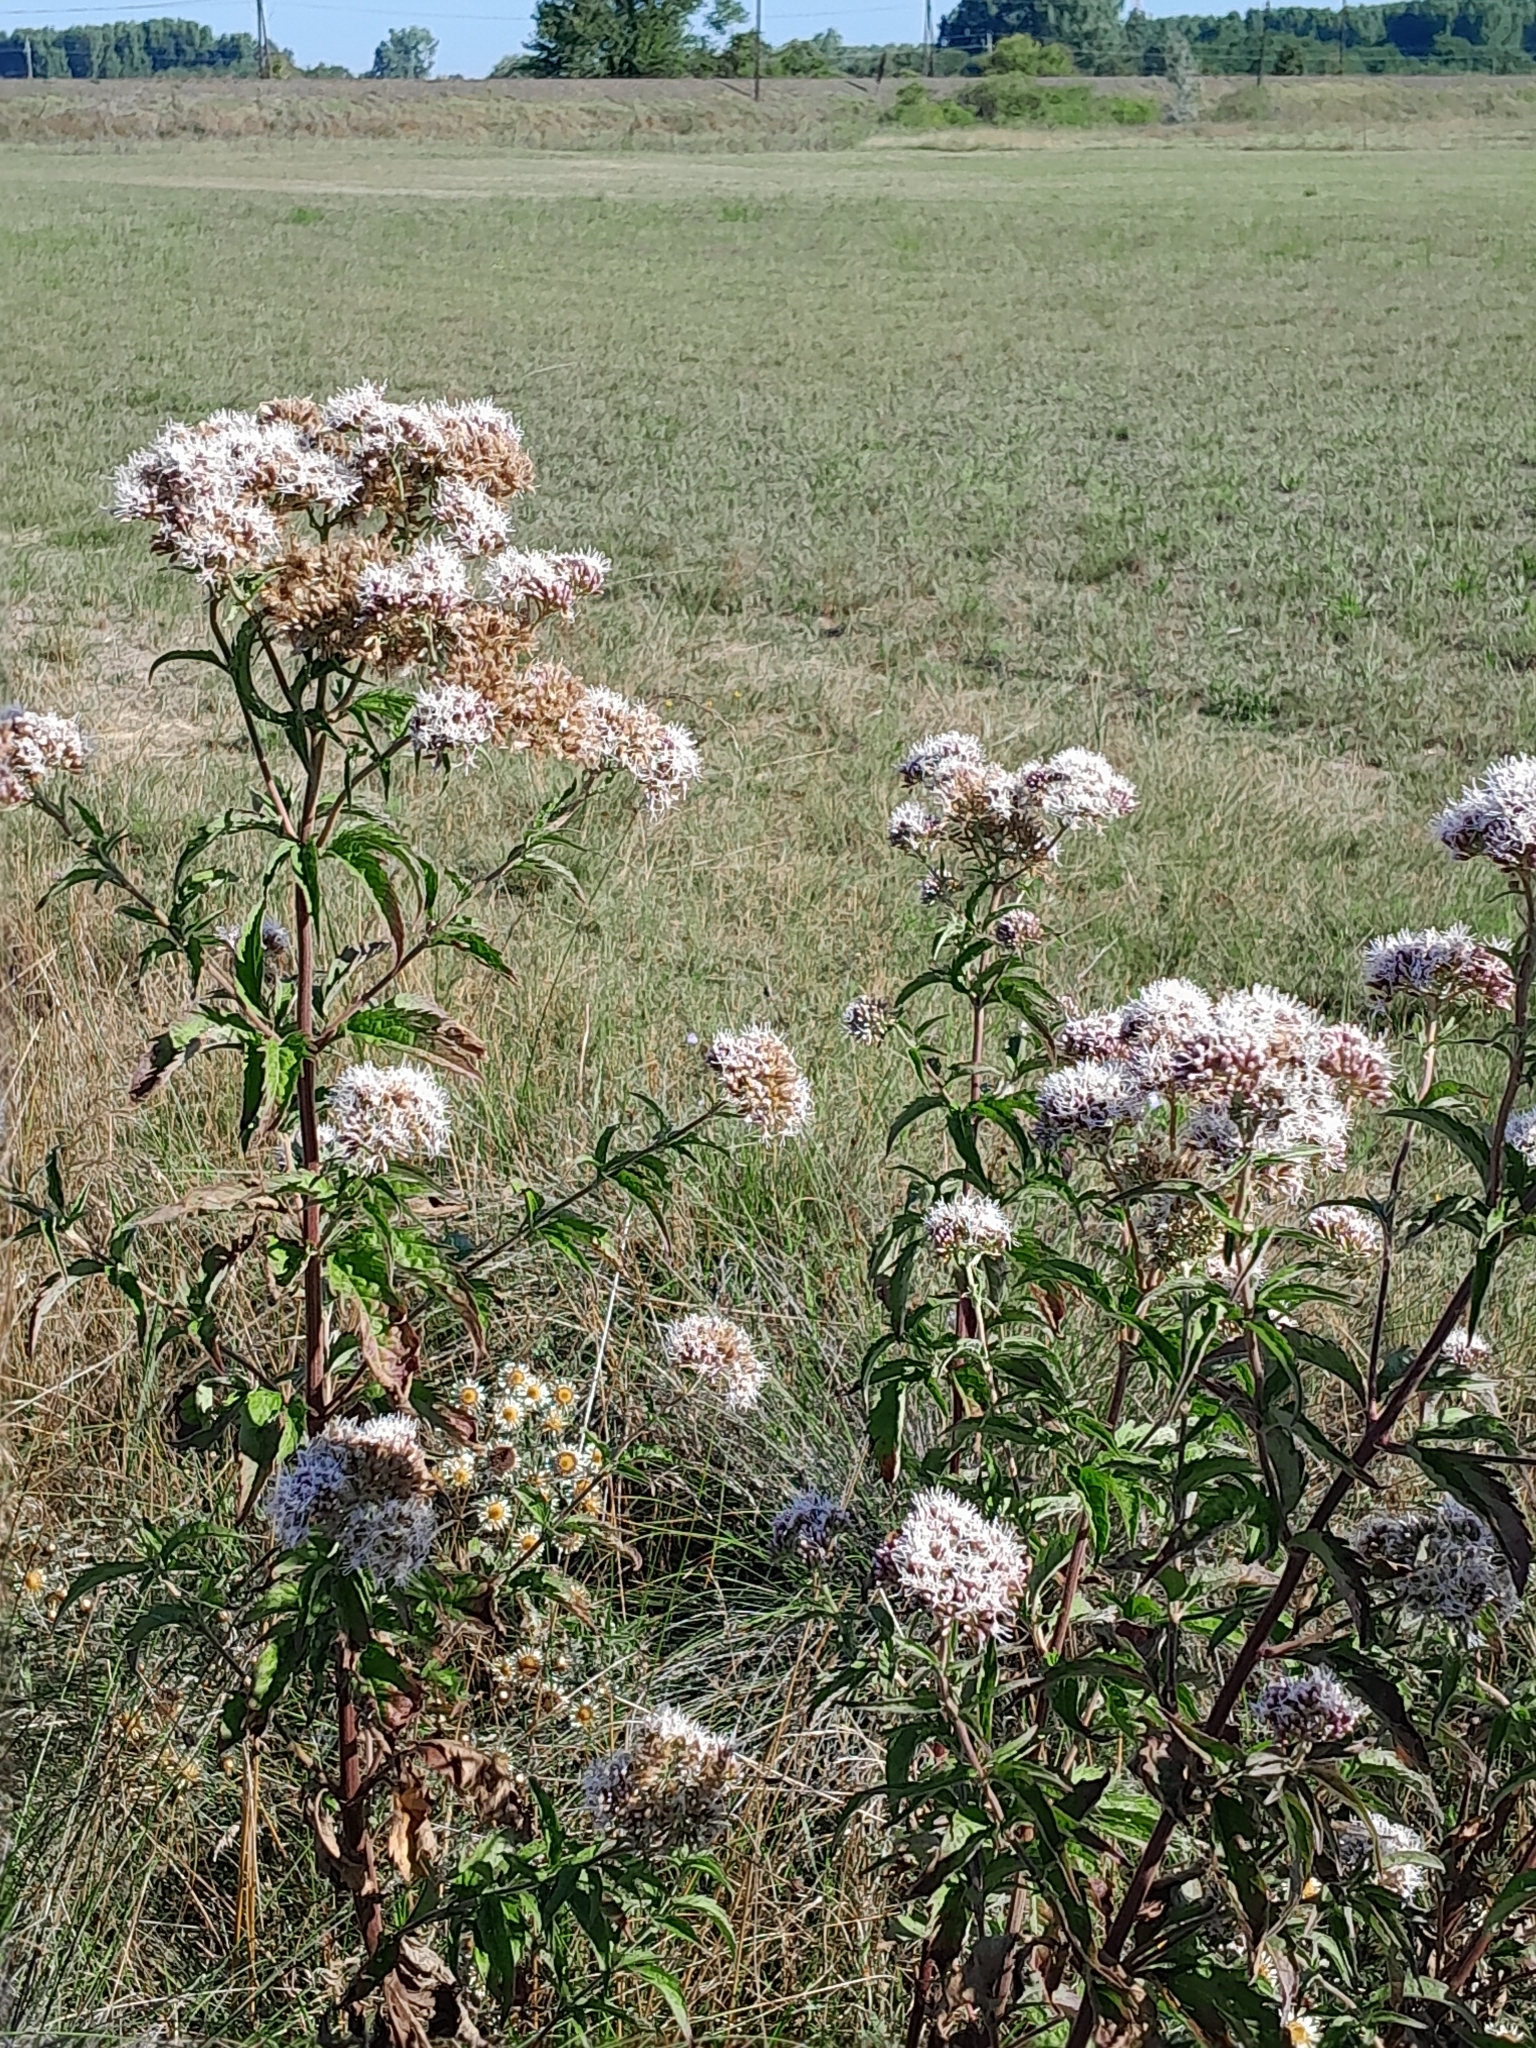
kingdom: Plantae
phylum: Tracheophyta
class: Magnoliopsida
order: Asterales
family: Asteraceae
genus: Eupatorium
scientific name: Eupatorium cannabinum
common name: Hemp-agrimony
